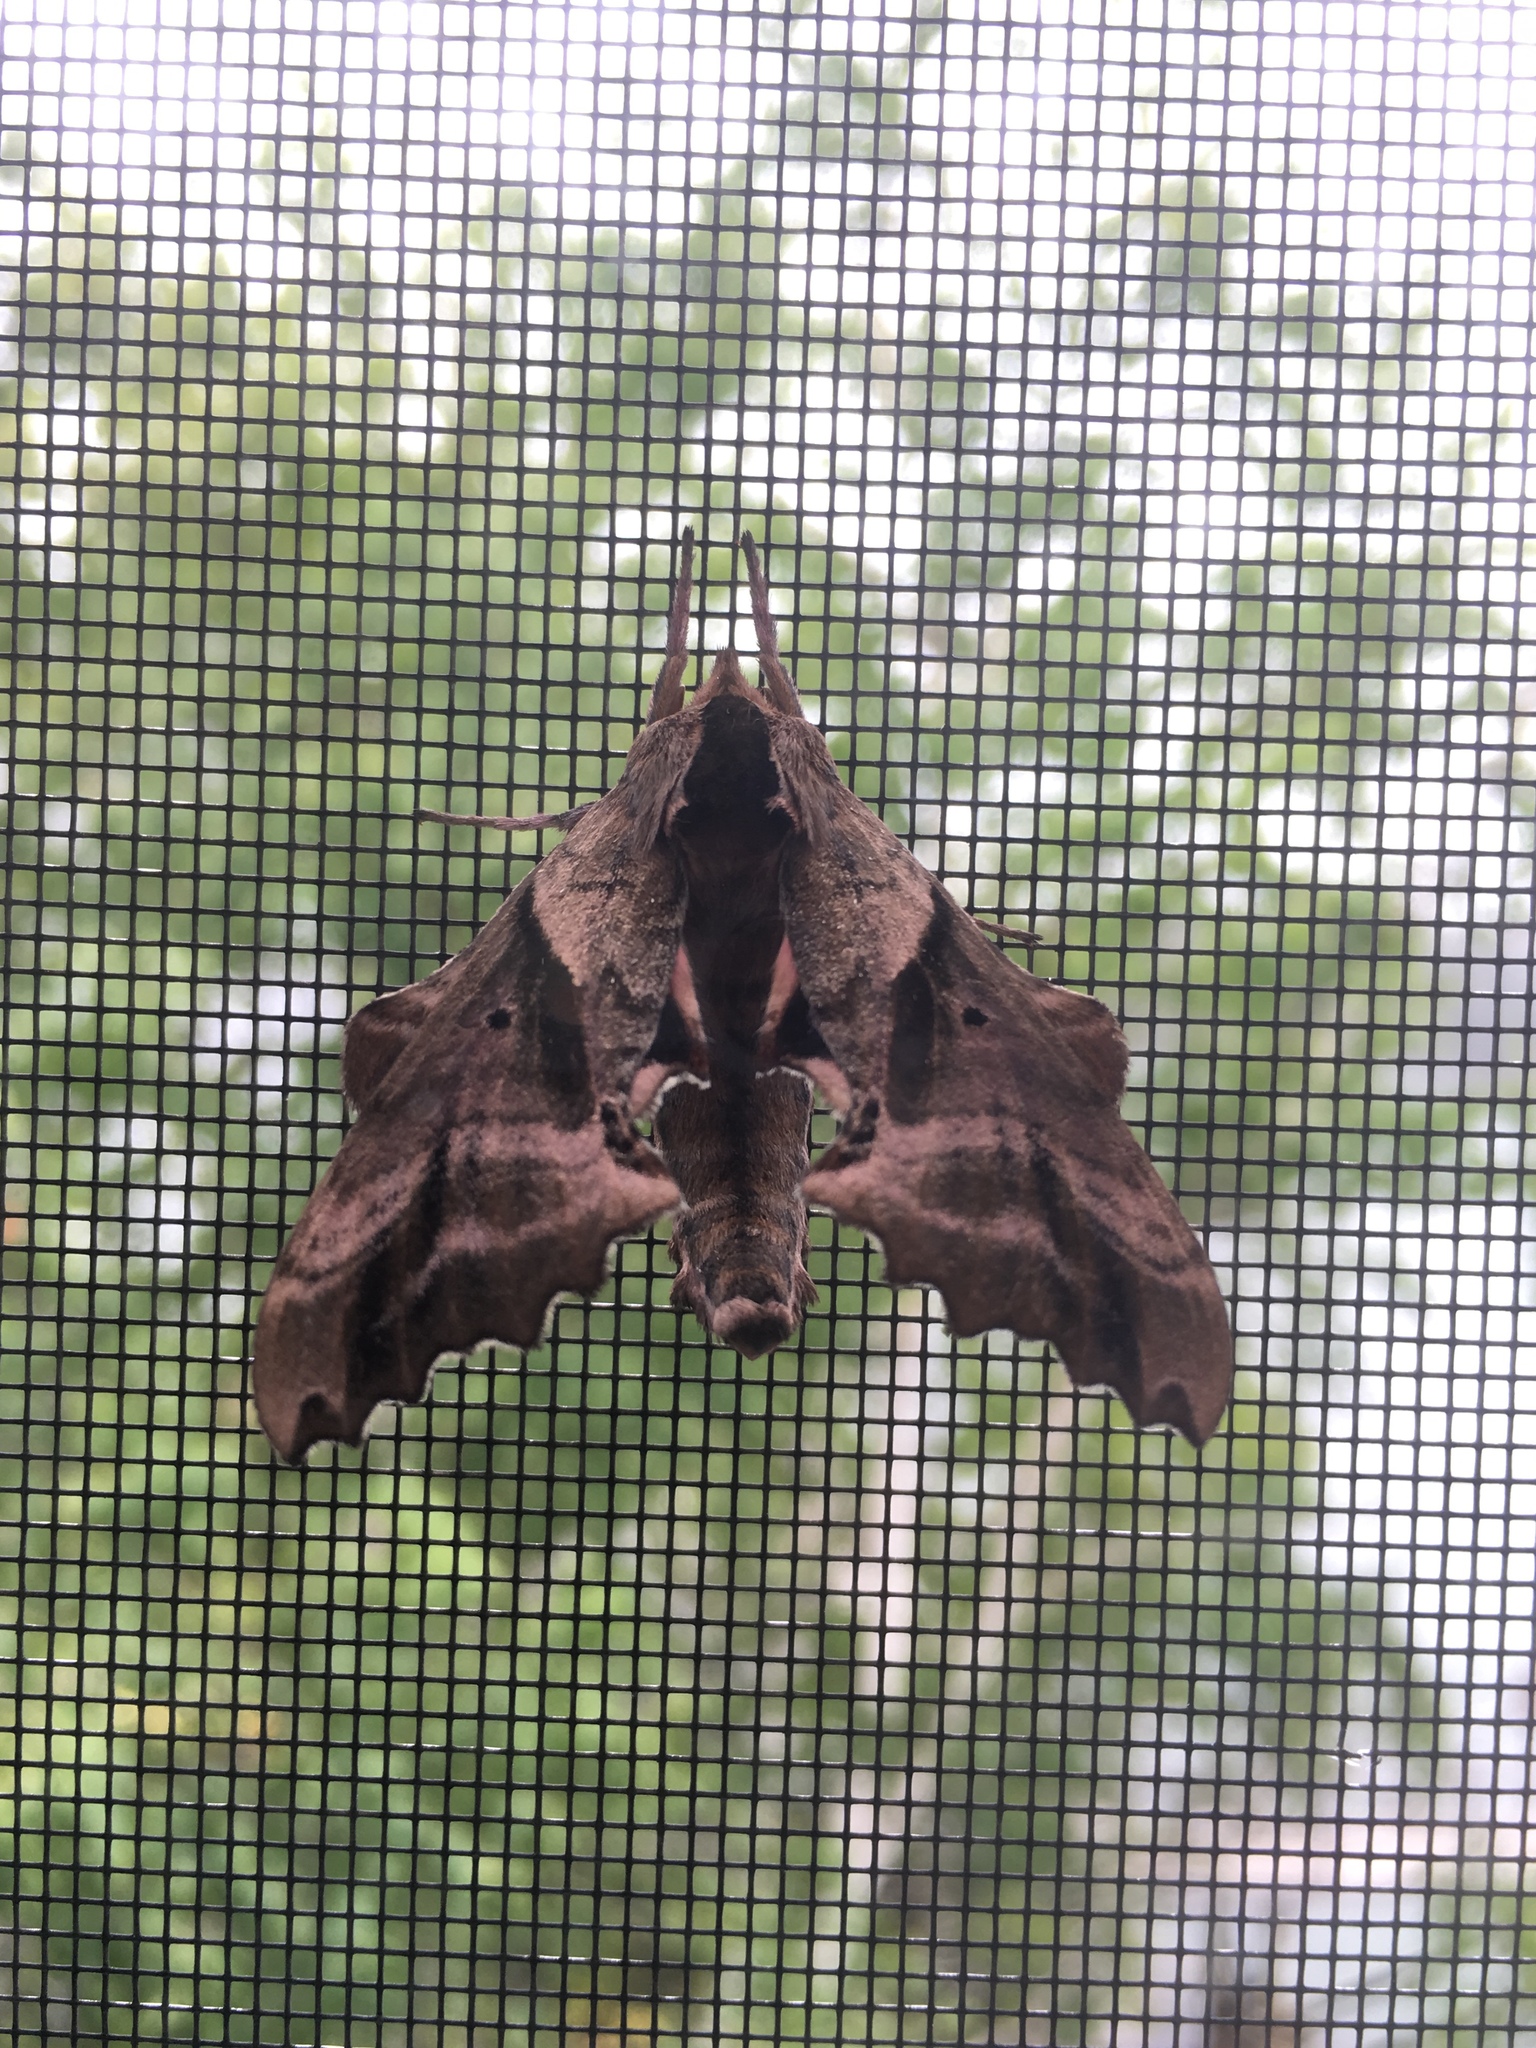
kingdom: Animalia
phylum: Arthropoda
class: Insecta
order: Lepidoptera
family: Sphingidae
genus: Paonias
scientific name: Paonias excaecata
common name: Blind-eyed sphinx
